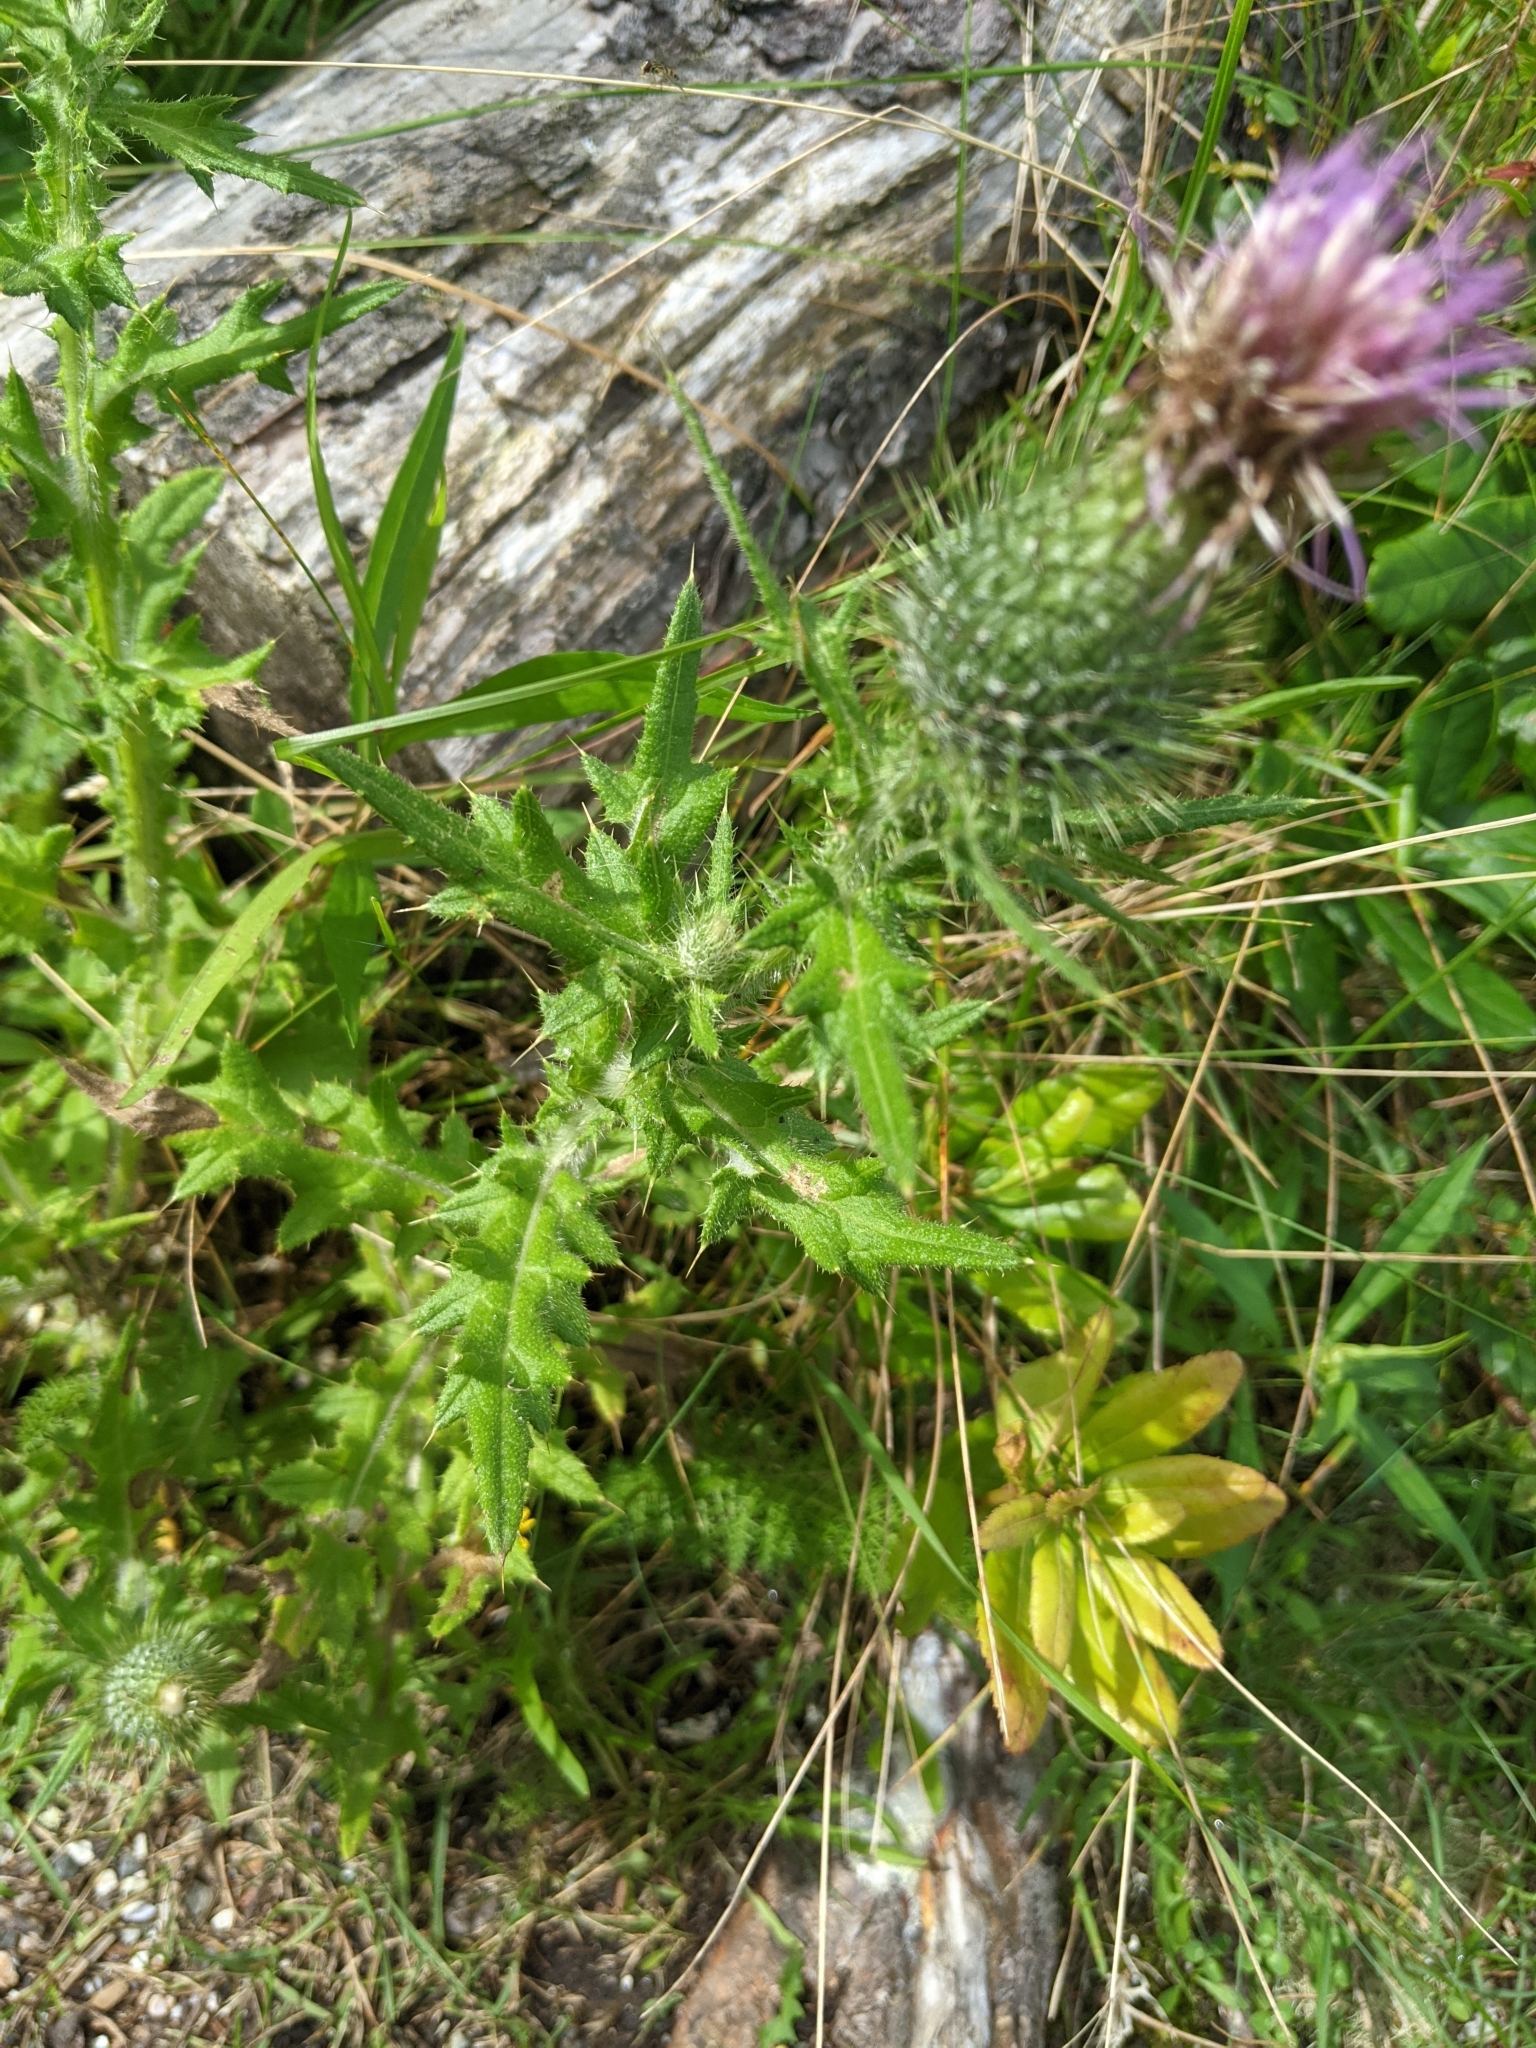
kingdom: Plantae
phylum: Tracheophyta
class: Magnoliopsida
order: Asterales
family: Asteraceae
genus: Cirsium
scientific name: Cirsium arvense
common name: Creeping thistle
